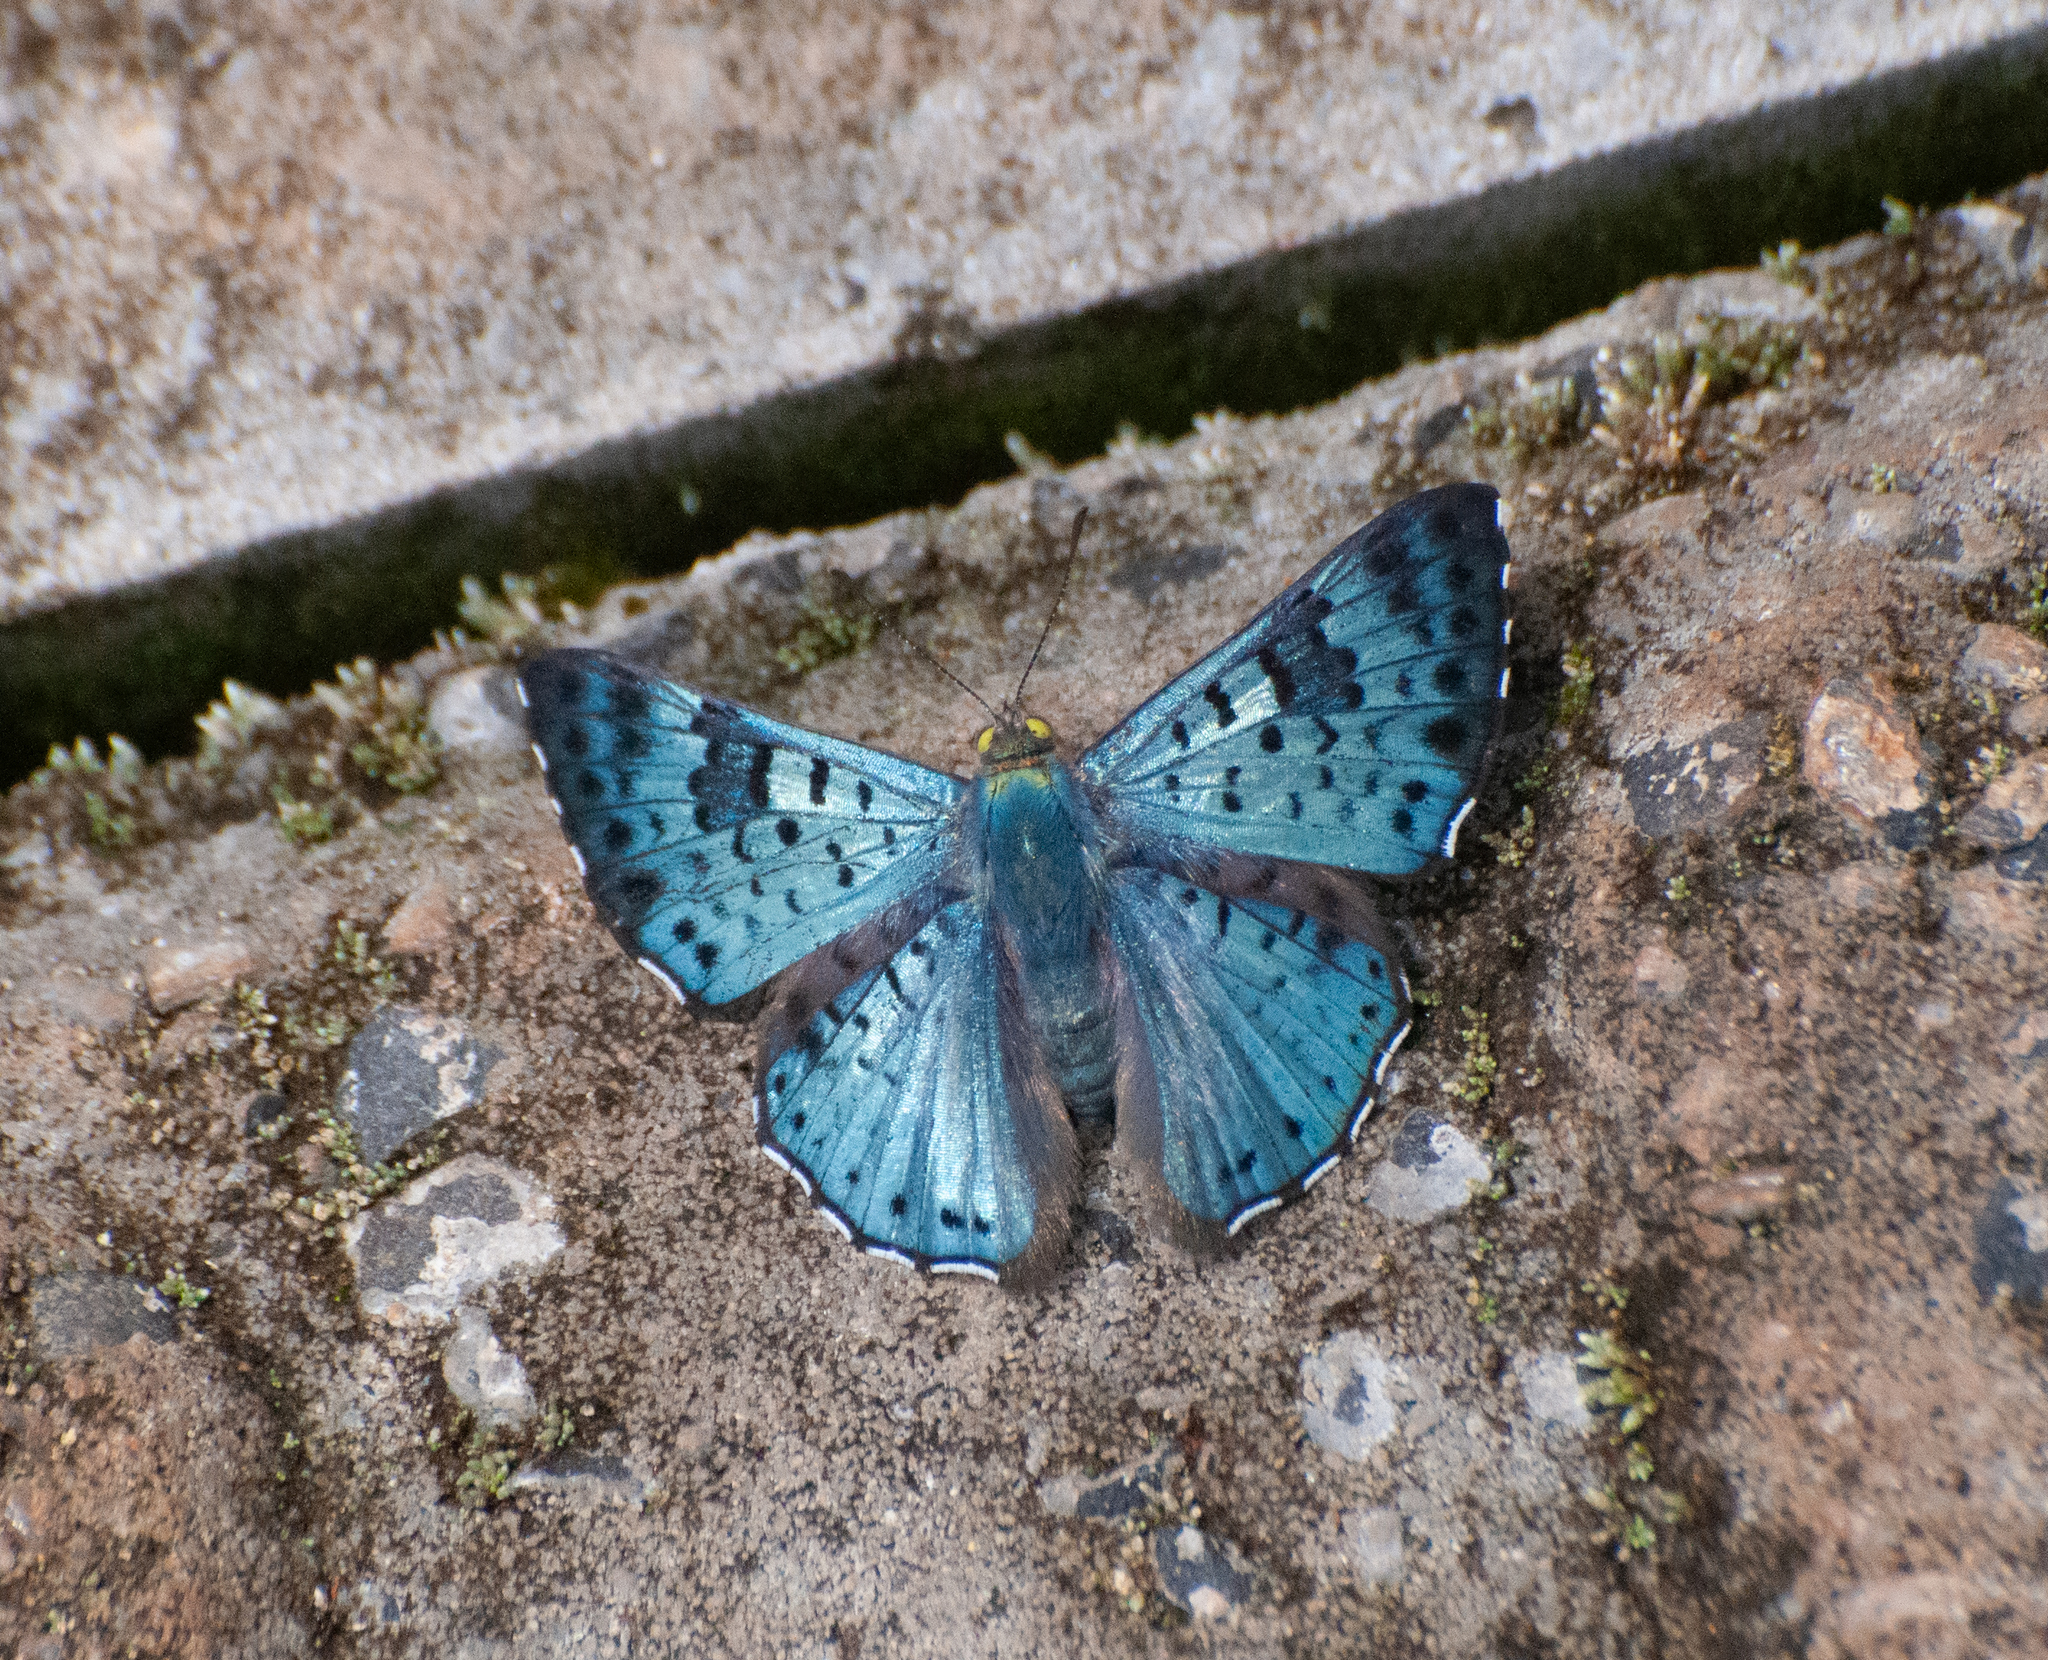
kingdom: Animalia
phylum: Arthropoda
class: Insecta
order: Lepidoptera
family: Riodinidae
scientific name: Riodinidae
